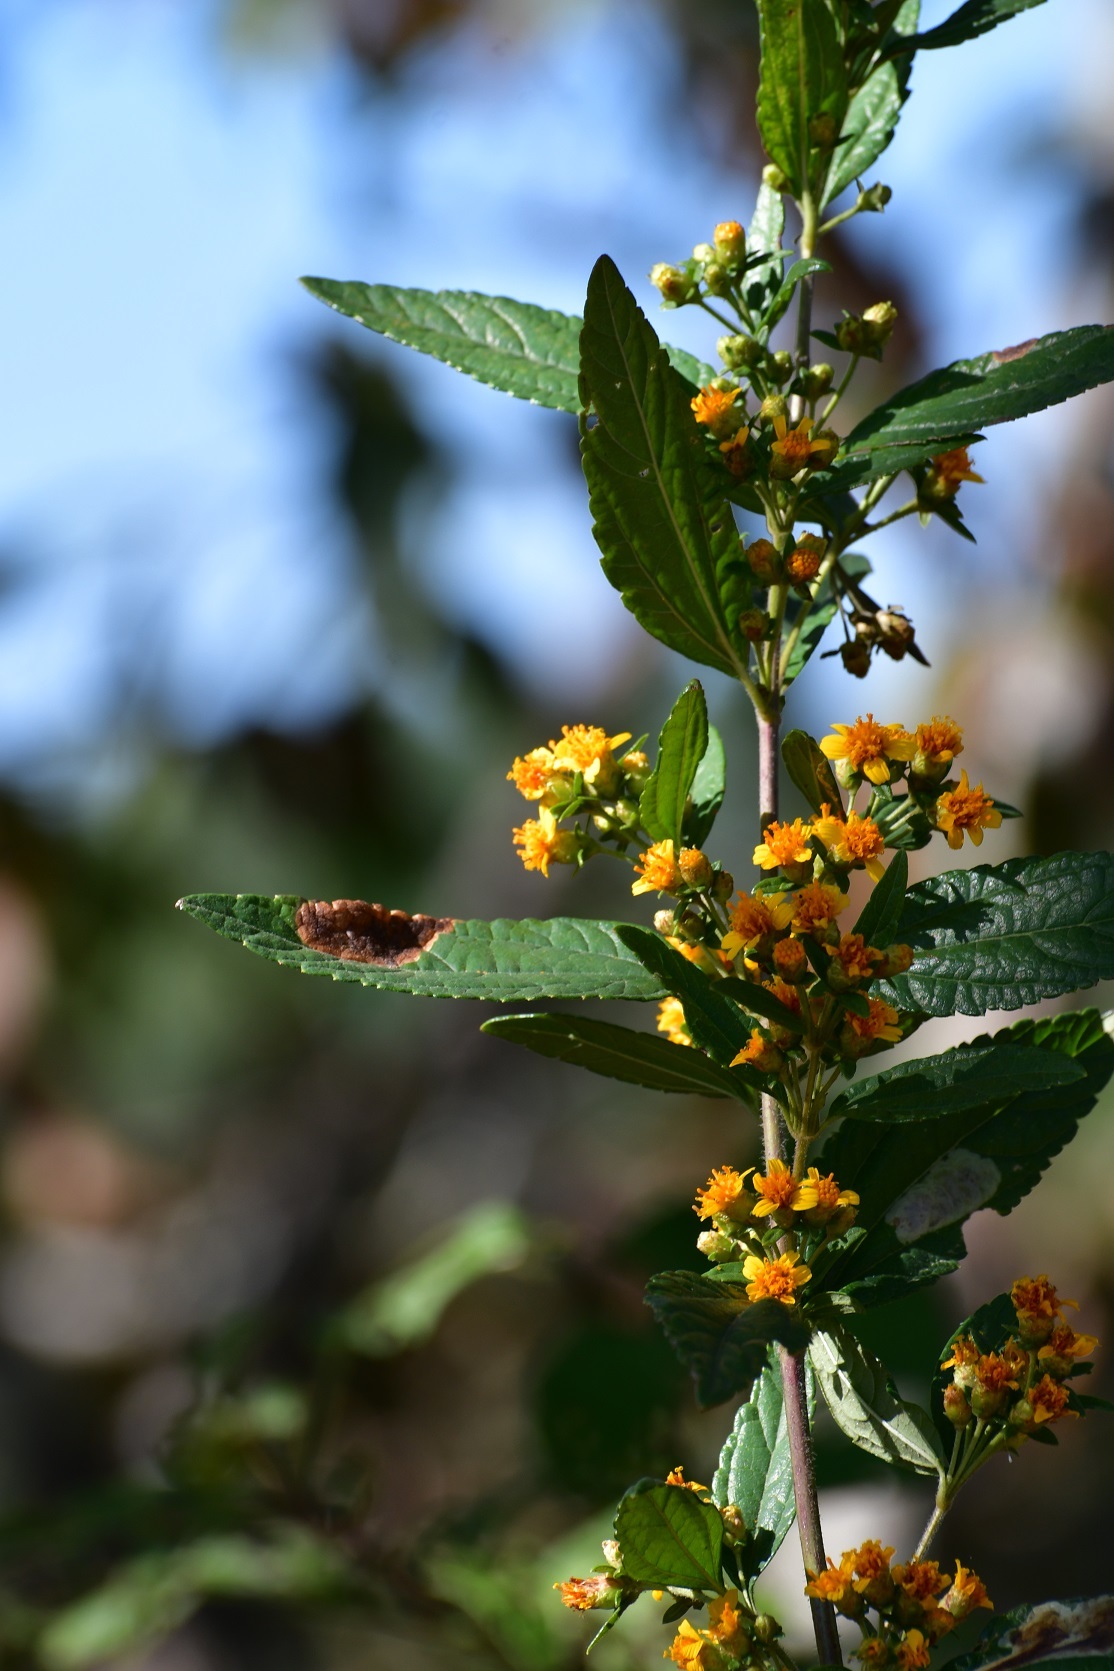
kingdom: Plantae
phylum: Tracheophyta
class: Magnoliopsida
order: Asterales
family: Asteraceae
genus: Calea
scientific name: Calea urticifolia
